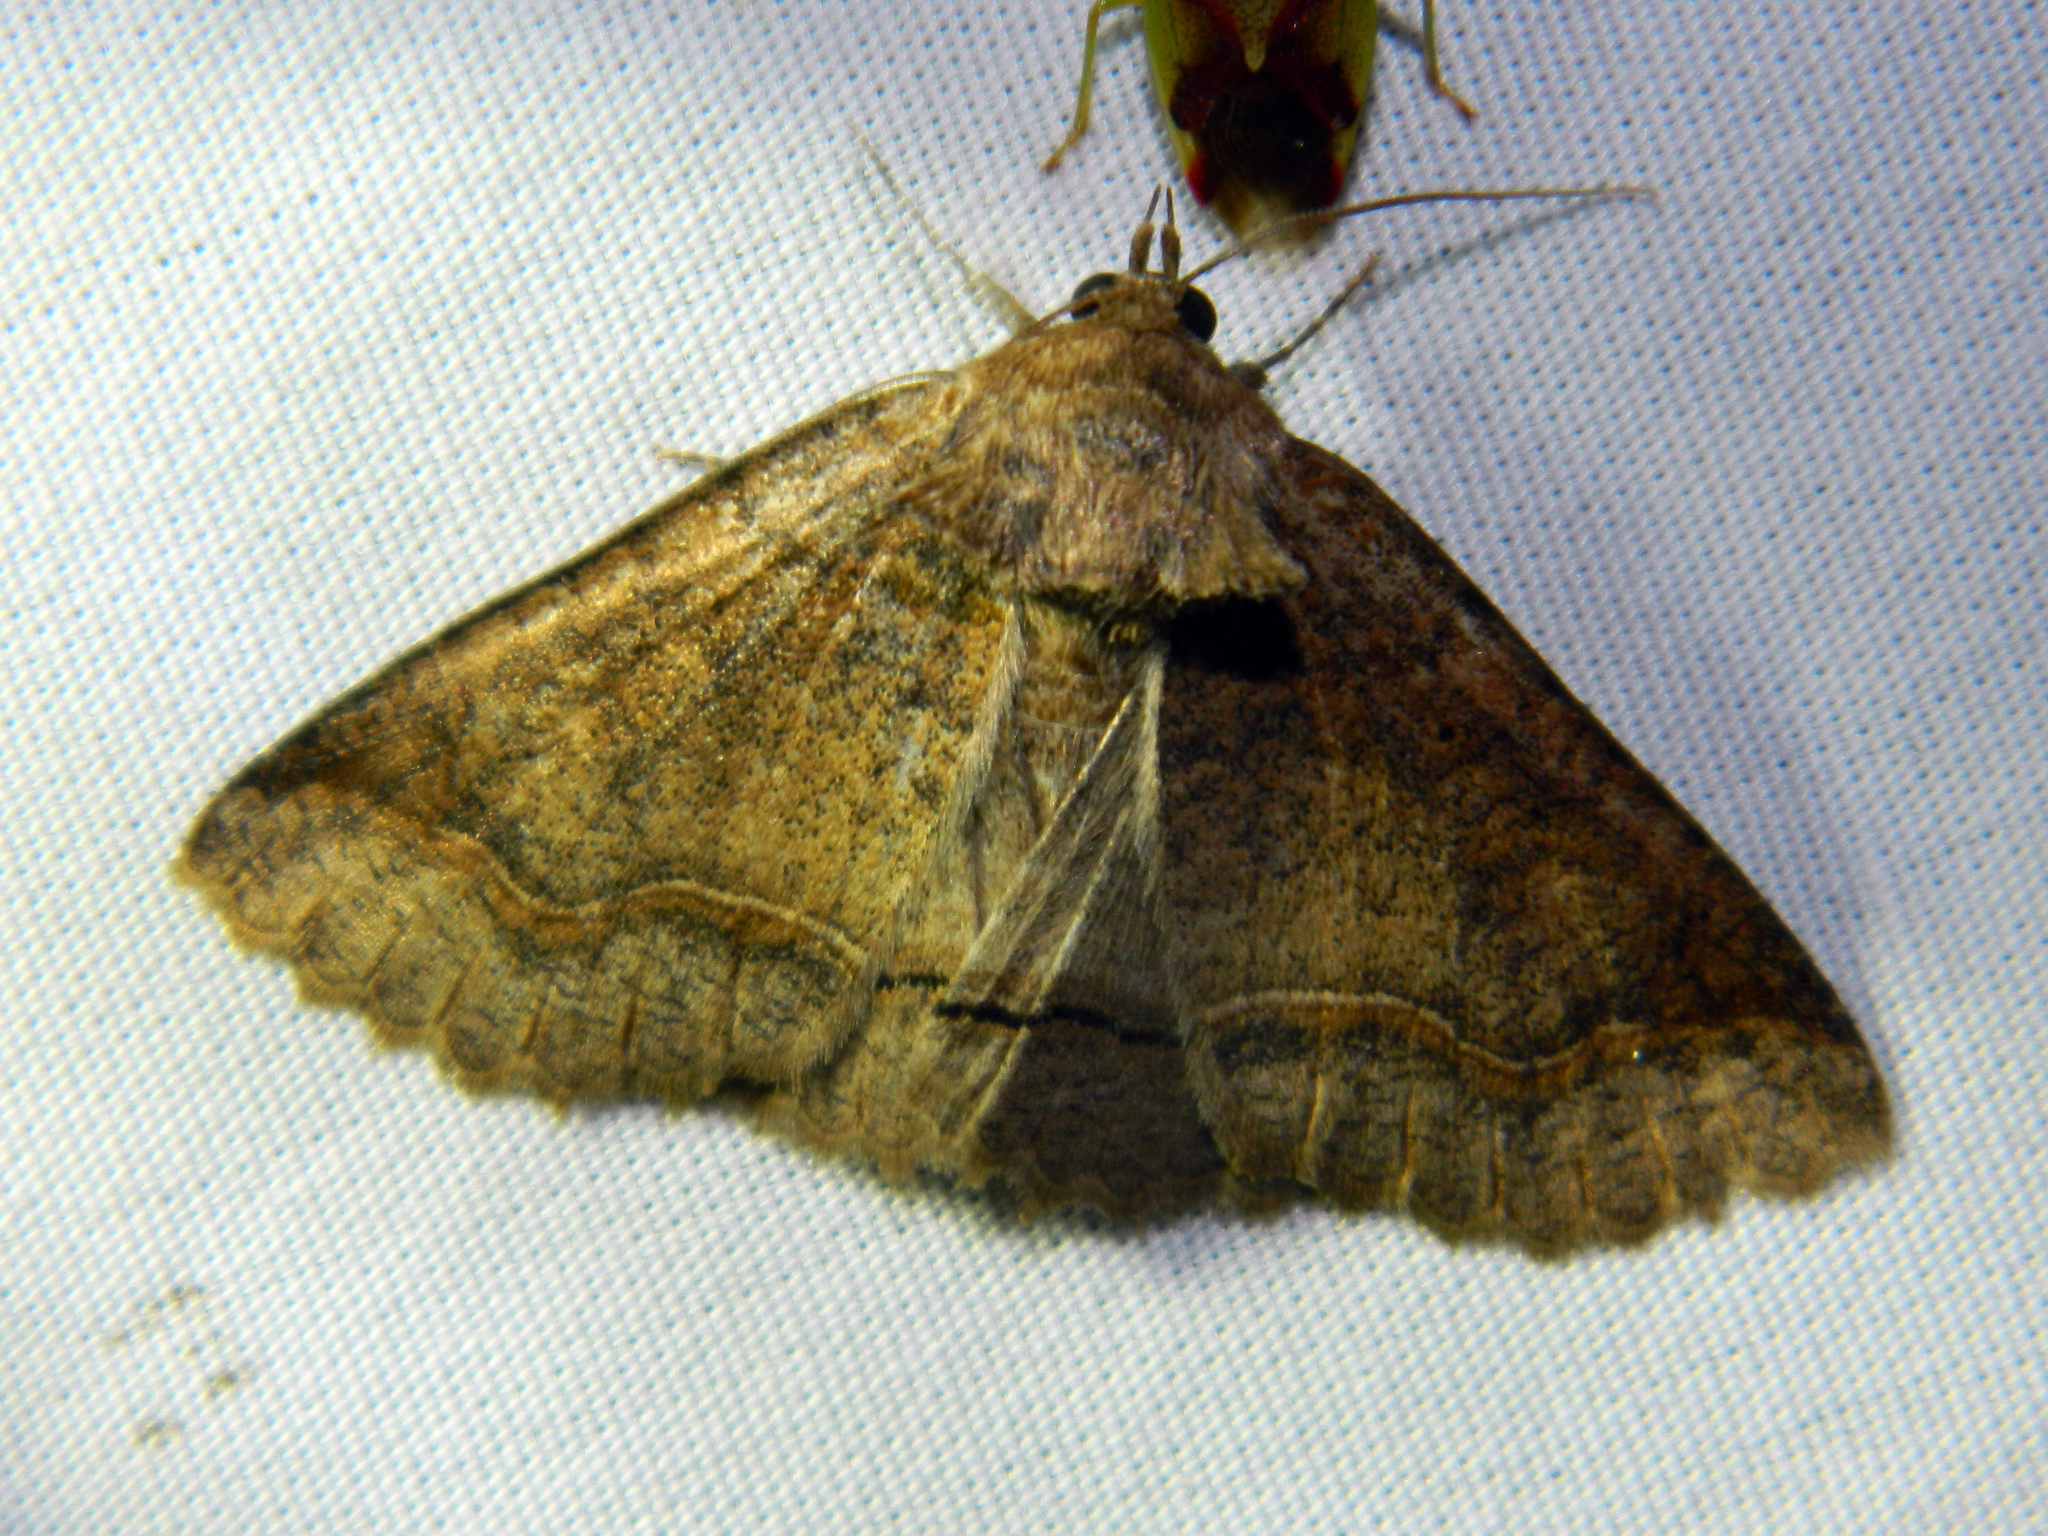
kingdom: Animalia
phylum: Arthropoda
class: Insecta
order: Lepidoptera
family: Erebidae
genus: Zale
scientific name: Zale unilineata
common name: One-lined zale moth
